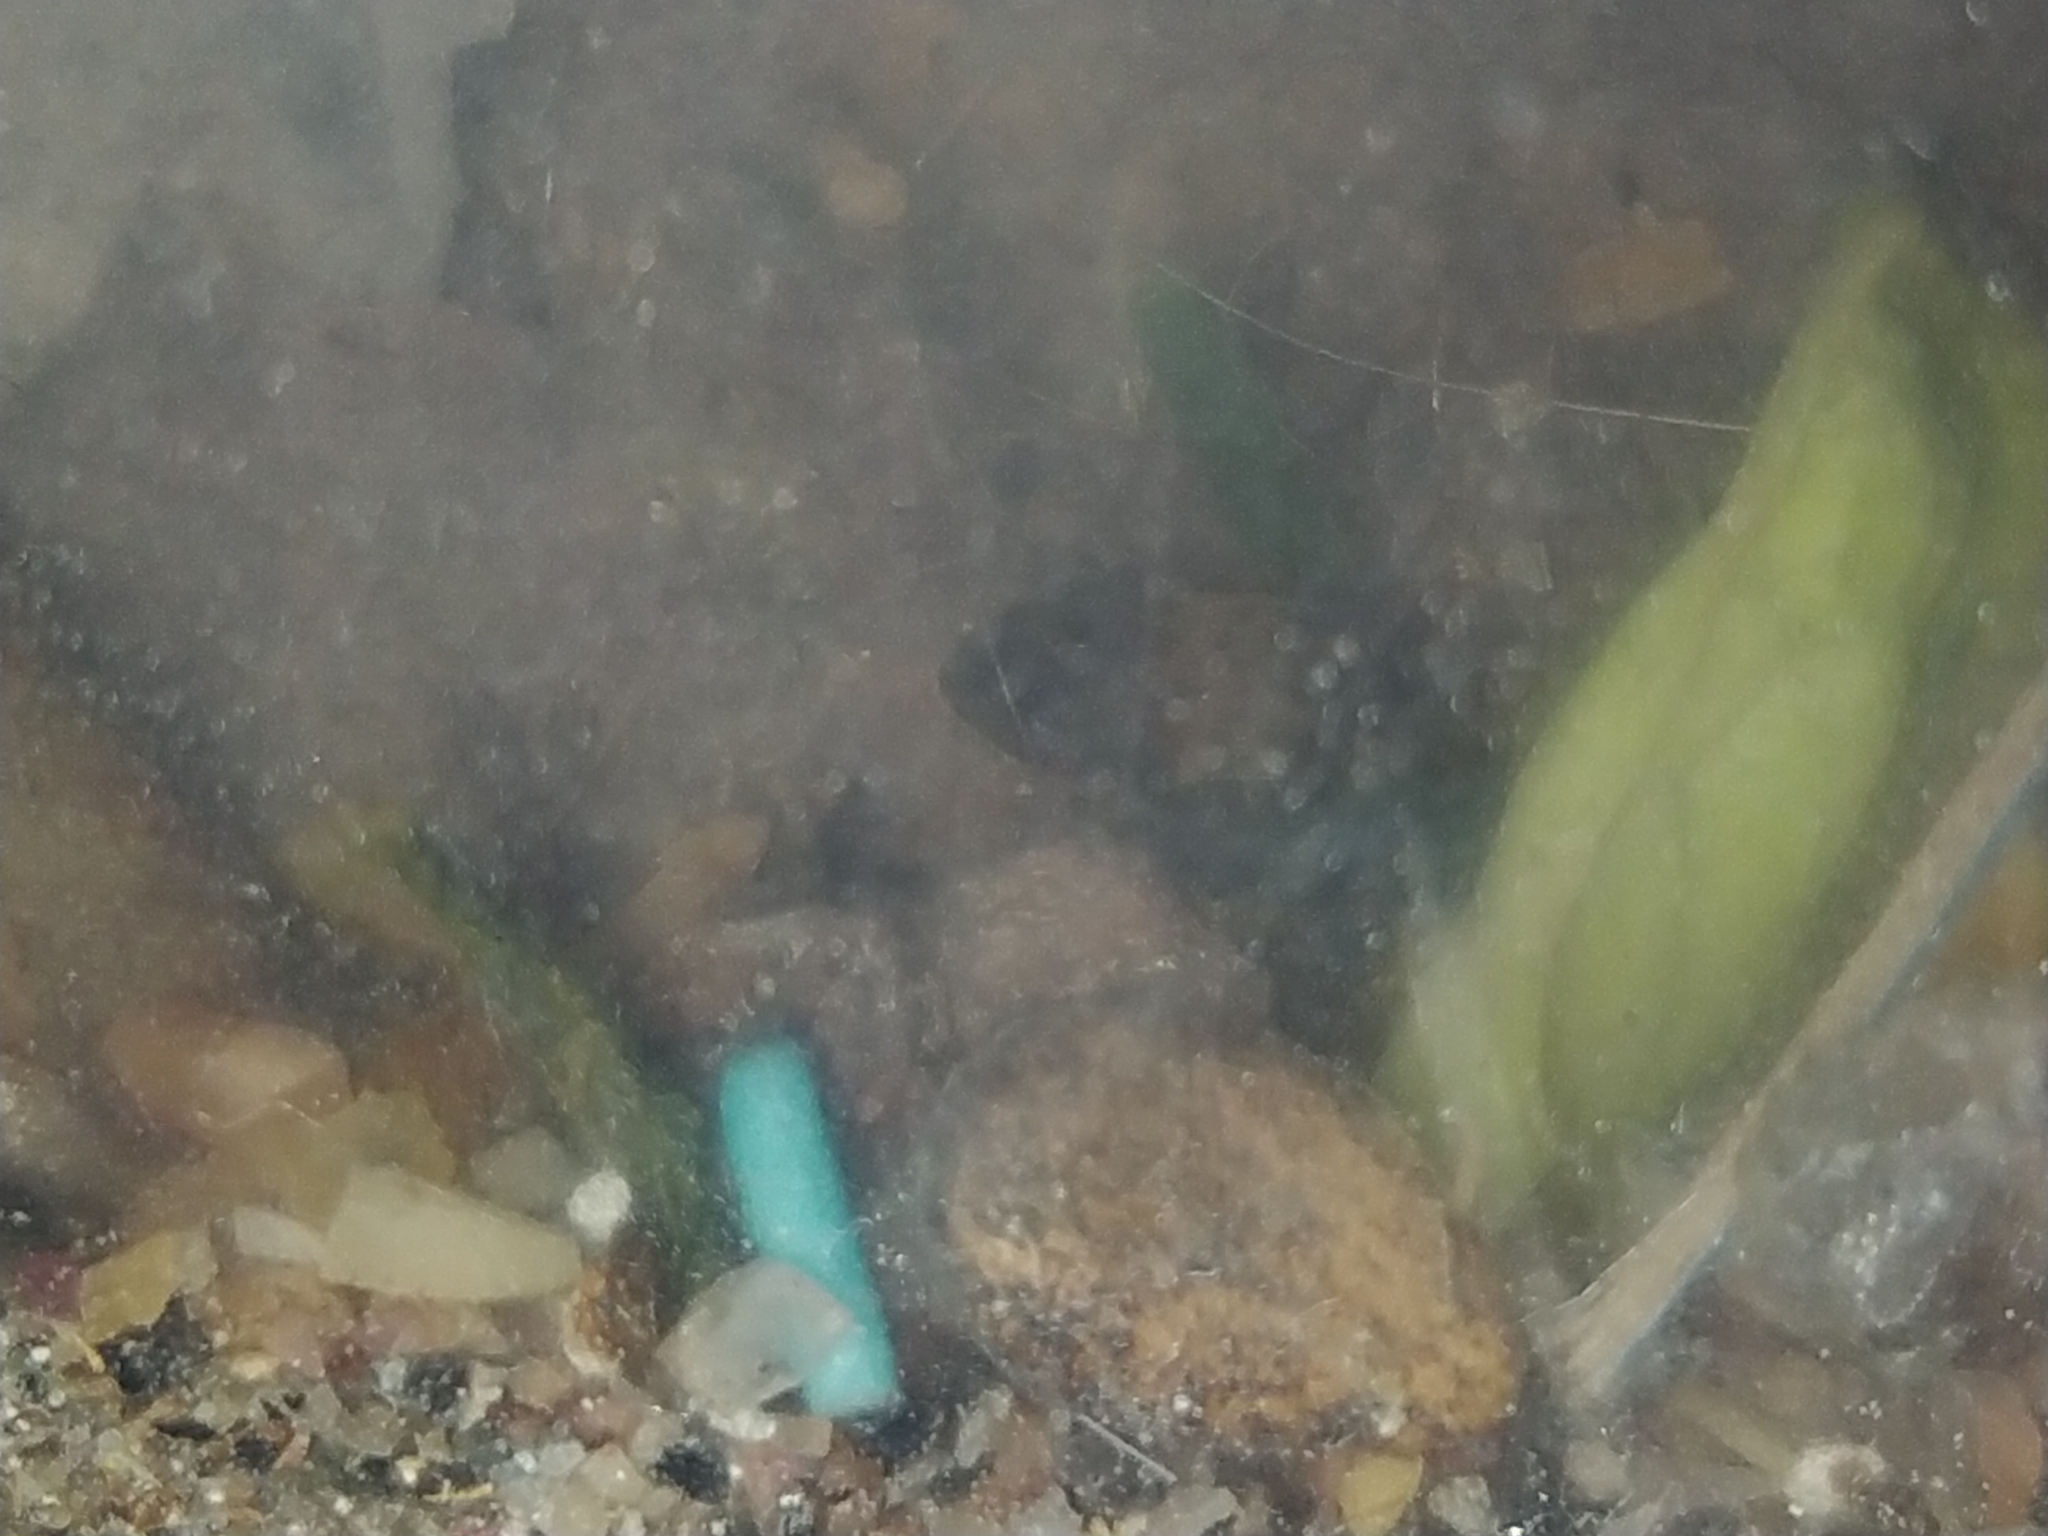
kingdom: Animalia
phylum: Arthropoda
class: Insecta
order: Coleoptera
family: Dermestidae
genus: Dermestes
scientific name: Dermestes lardarius
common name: Larder beetle
